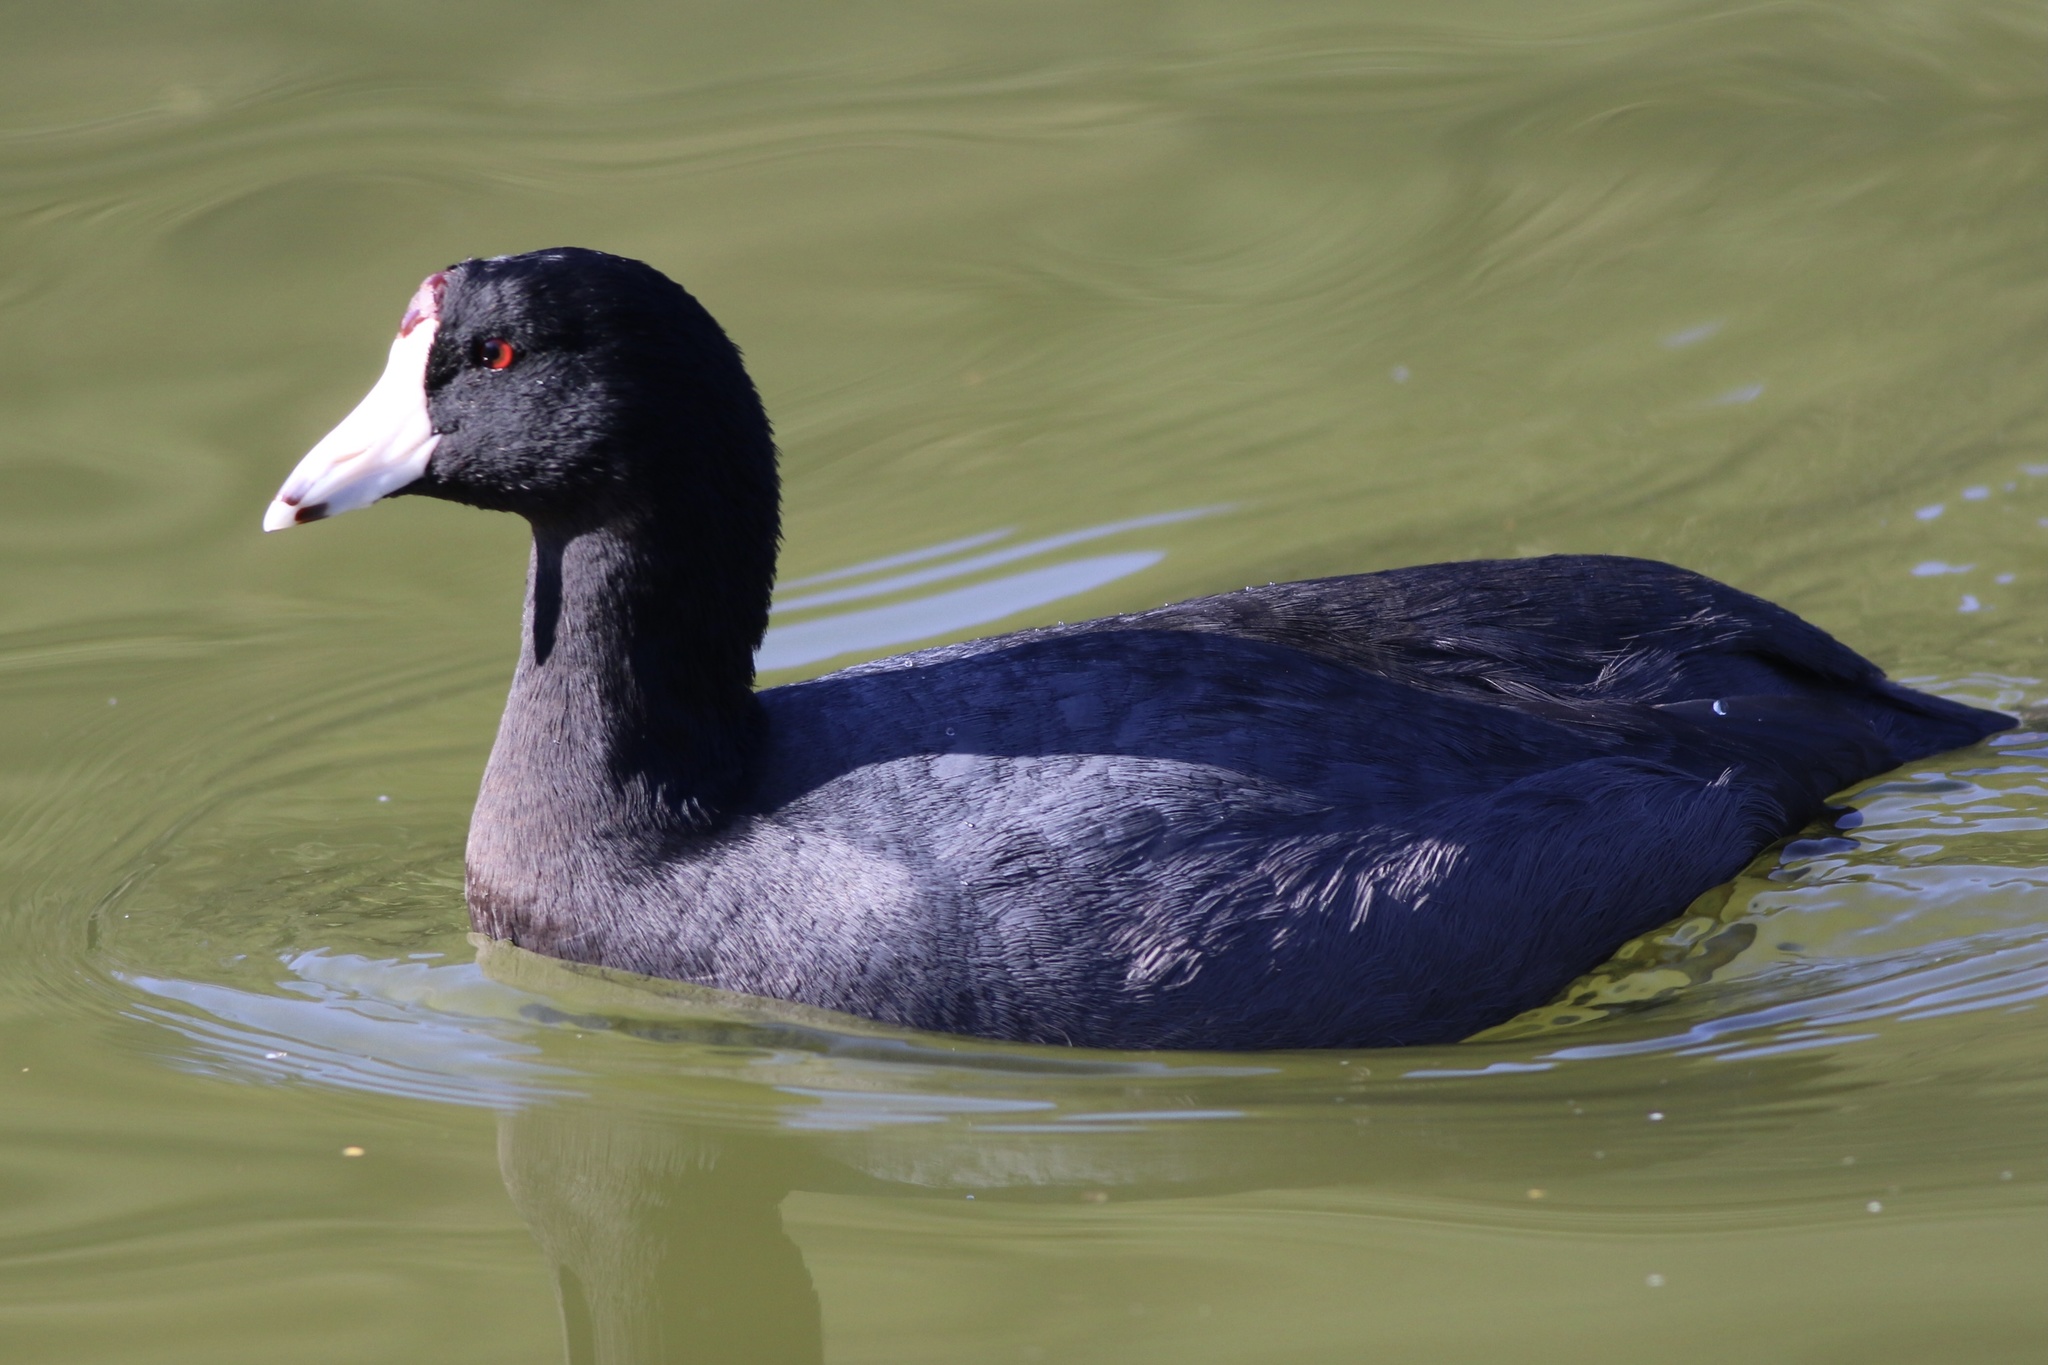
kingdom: Animalia
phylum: Chordata
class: Aves
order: Gruiformes
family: Rallidae
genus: Fulica
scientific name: Fulica americana
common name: American coot
